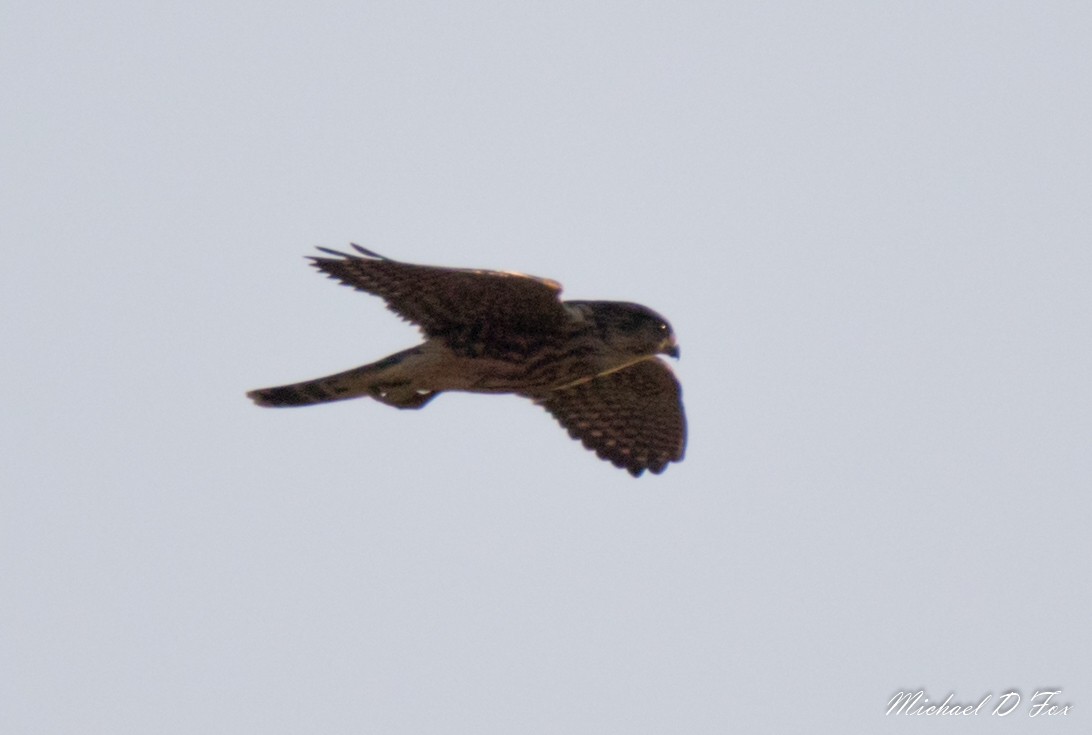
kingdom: Animalia
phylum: Chordata
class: Aves
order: Falconiformes
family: Falconidae
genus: Falco
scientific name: Falco sparverius
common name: American kestrel
